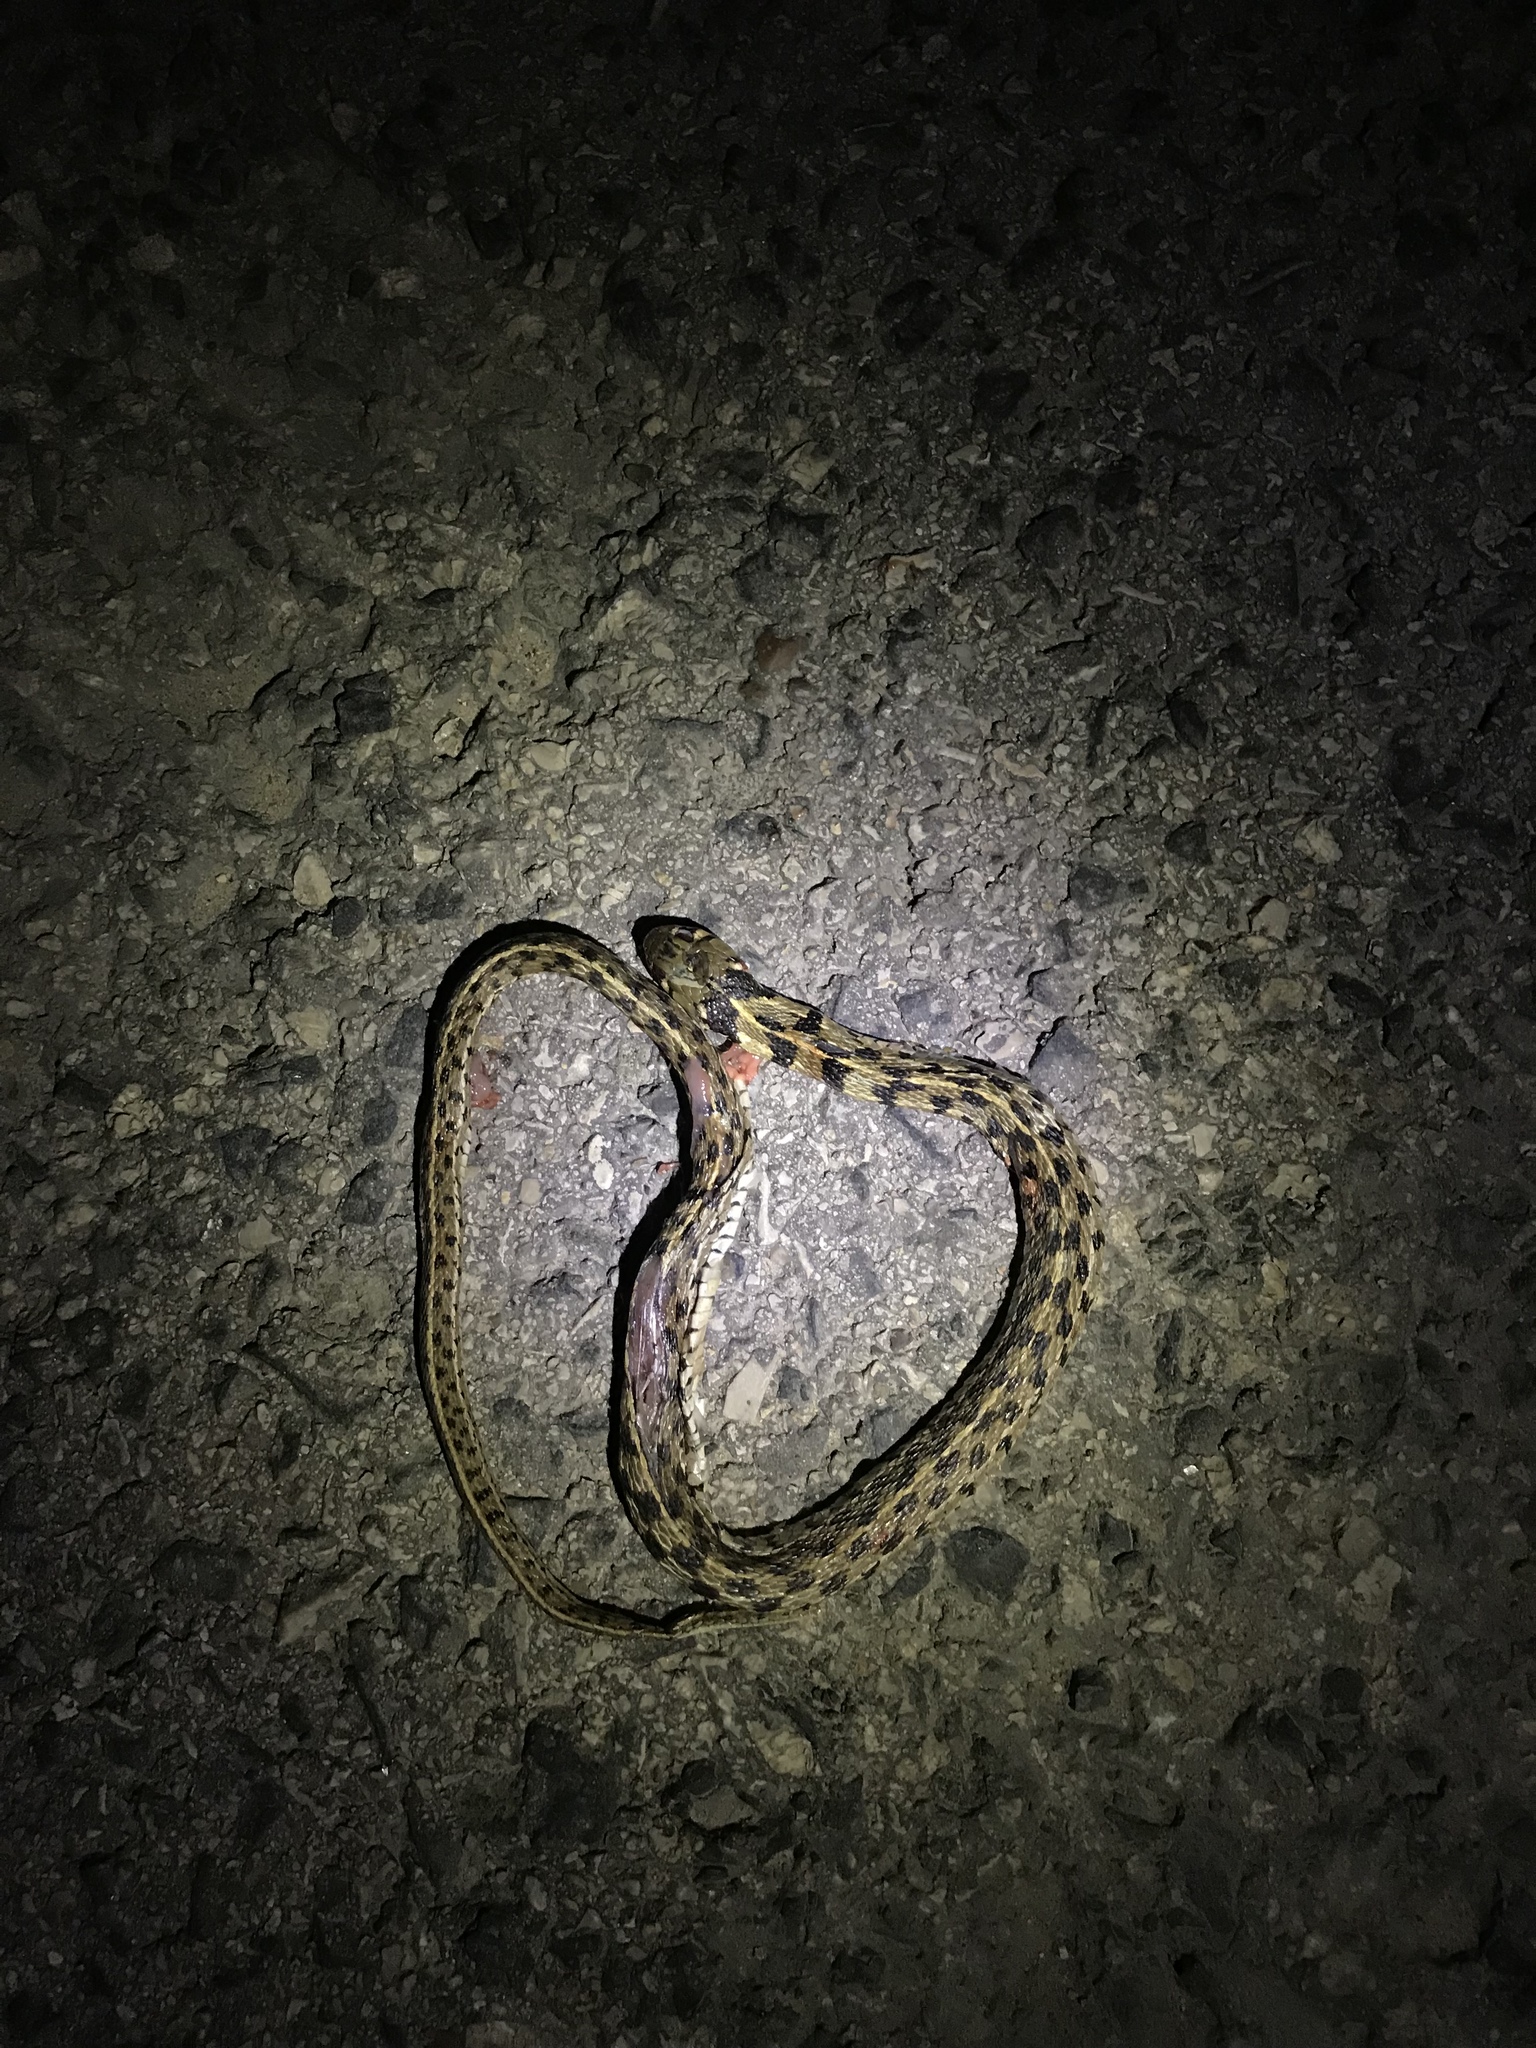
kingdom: Animalia
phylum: Chordata
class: Squamata
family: Colubridae
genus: Thamnophis
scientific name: Thamnophis marcianus
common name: Checkered garter snake
